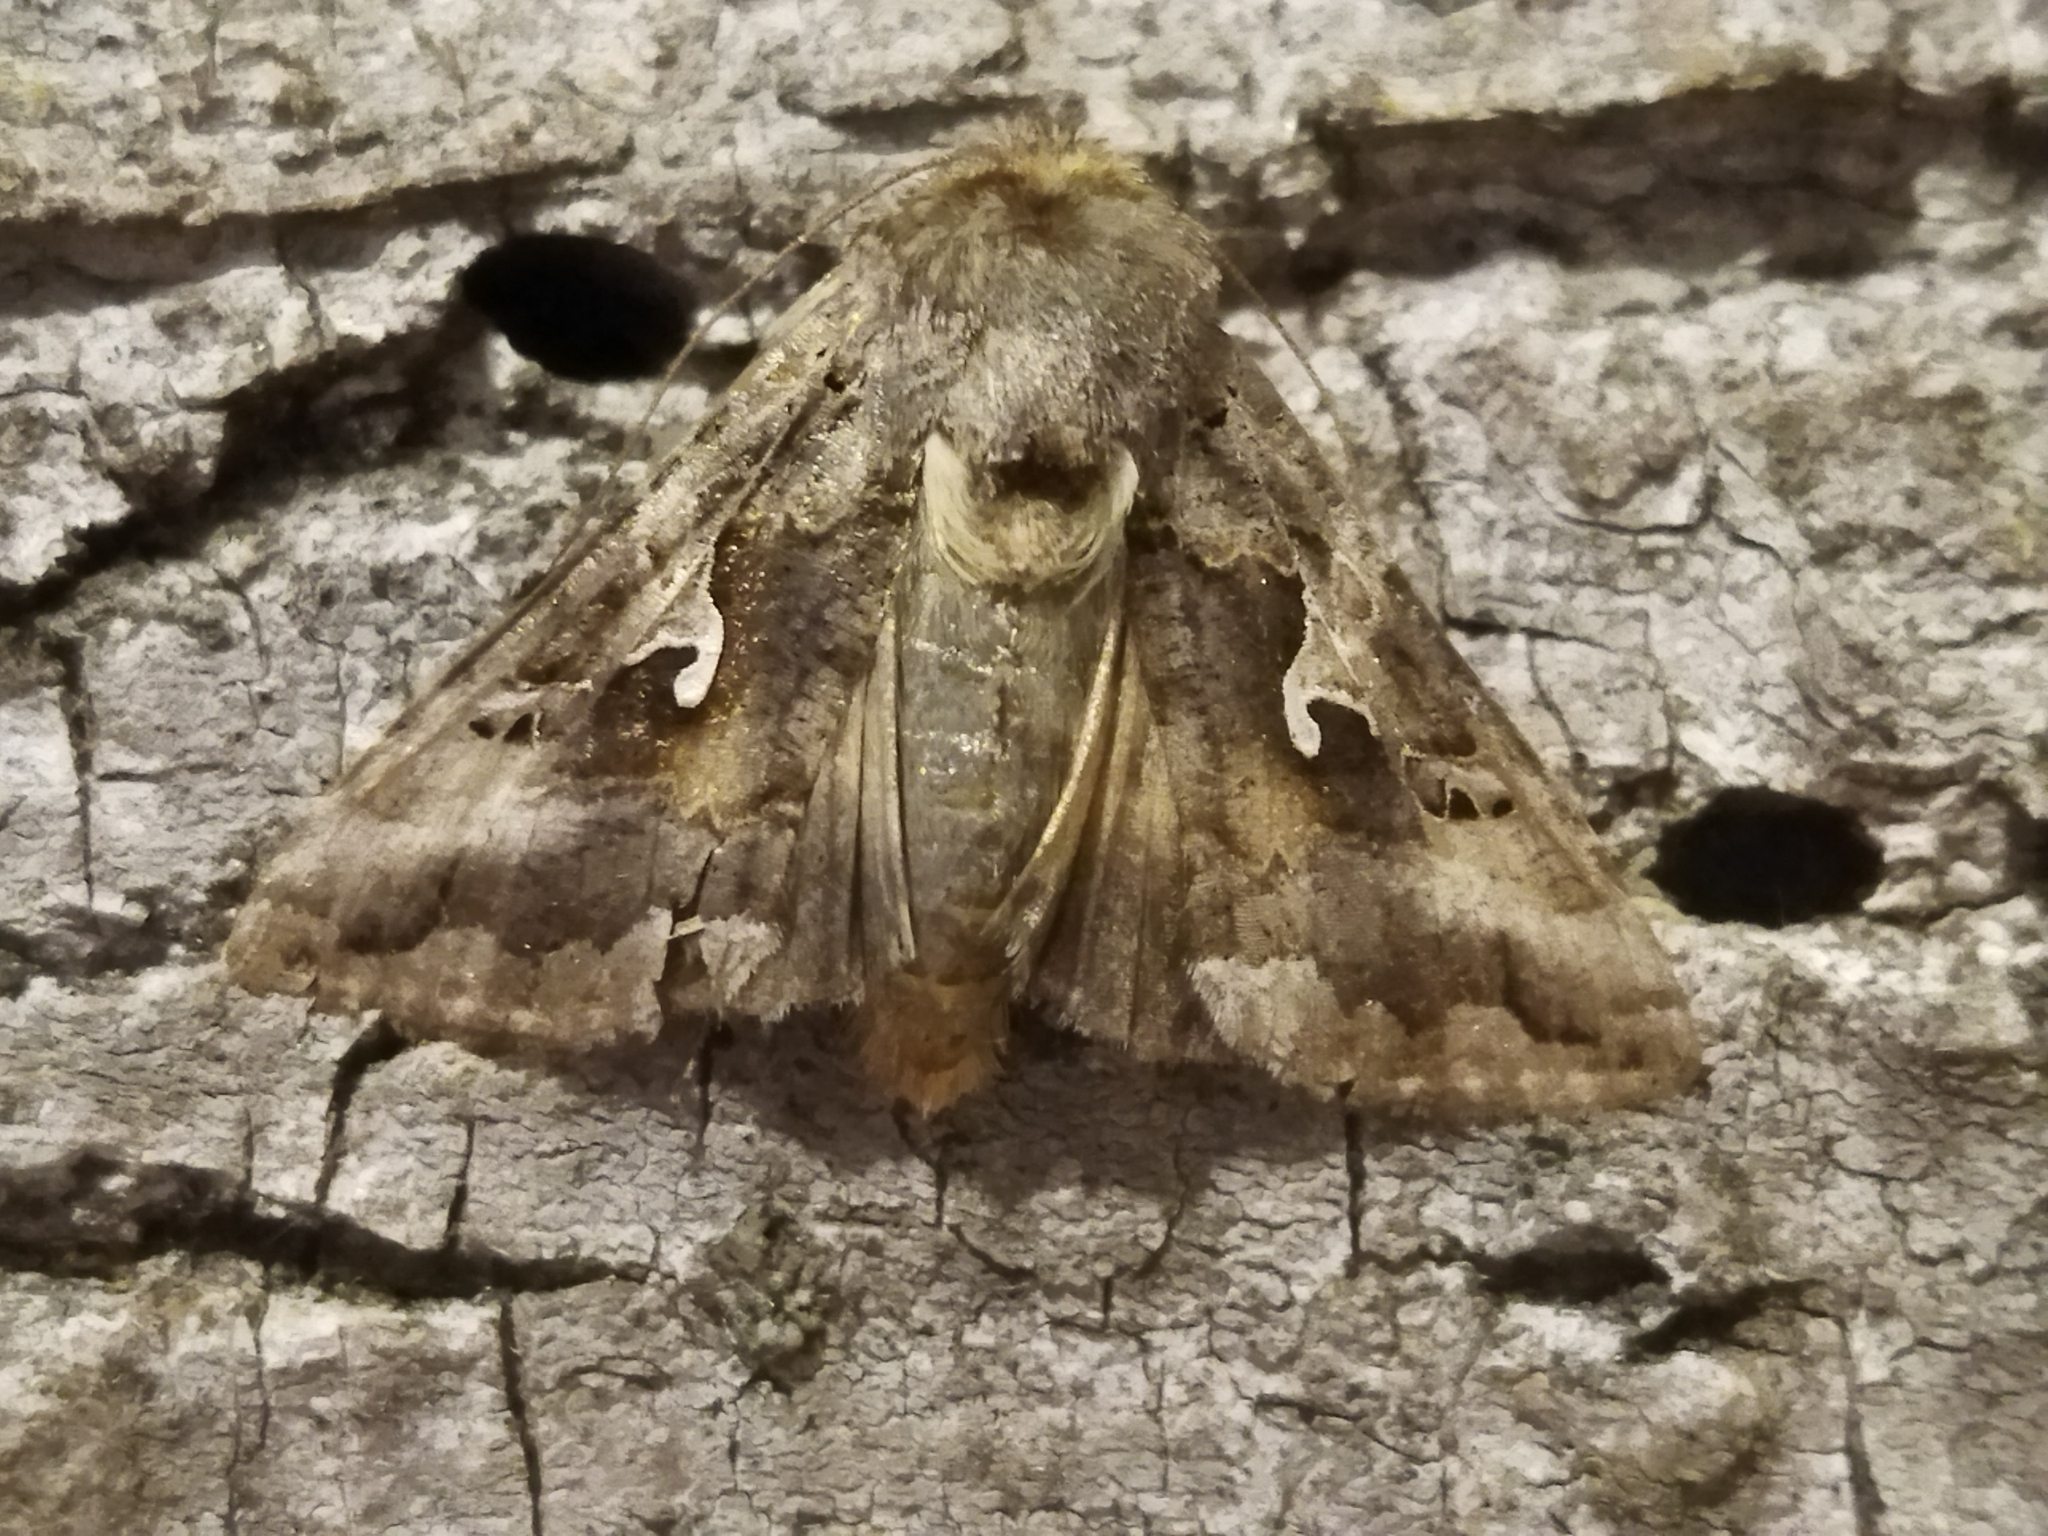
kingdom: Animalia
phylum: Arthropoda
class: Insecta
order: Lepidoptera
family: Noctuidae
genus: Autographa
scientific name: Autographa gamma
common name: Silver y
